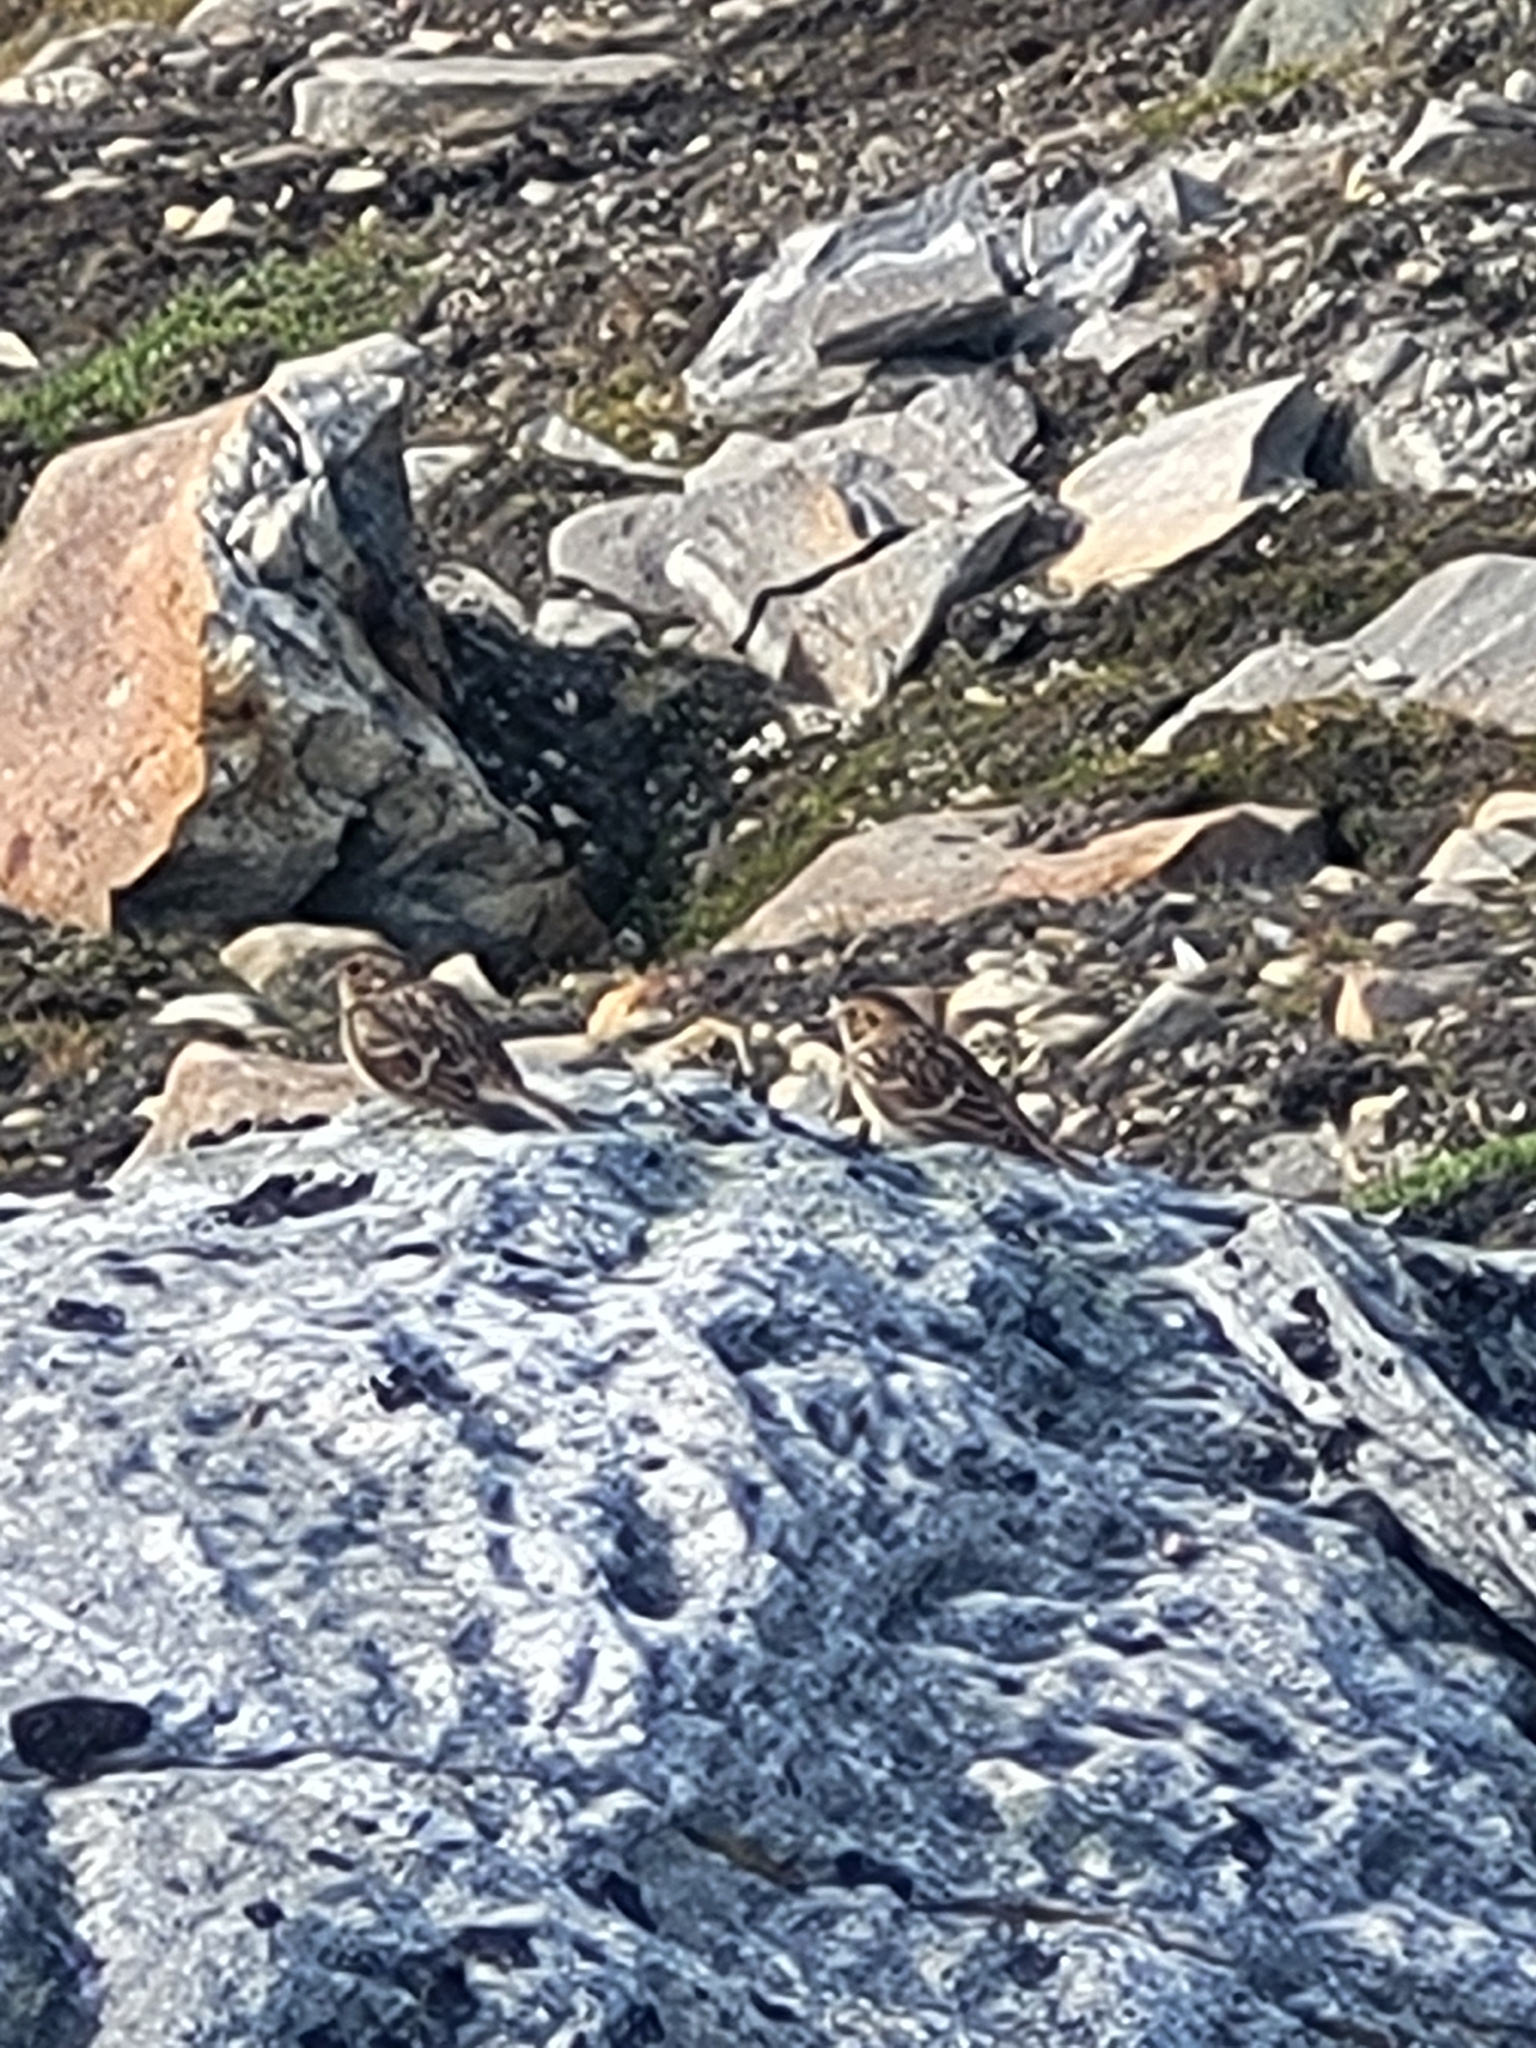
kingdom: Animalia
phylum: Chordata
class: Aves
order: Passeriformes
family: Calcariidae
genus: Calcarius
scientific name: Calcarius lapponicus
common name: Lapland longspur
